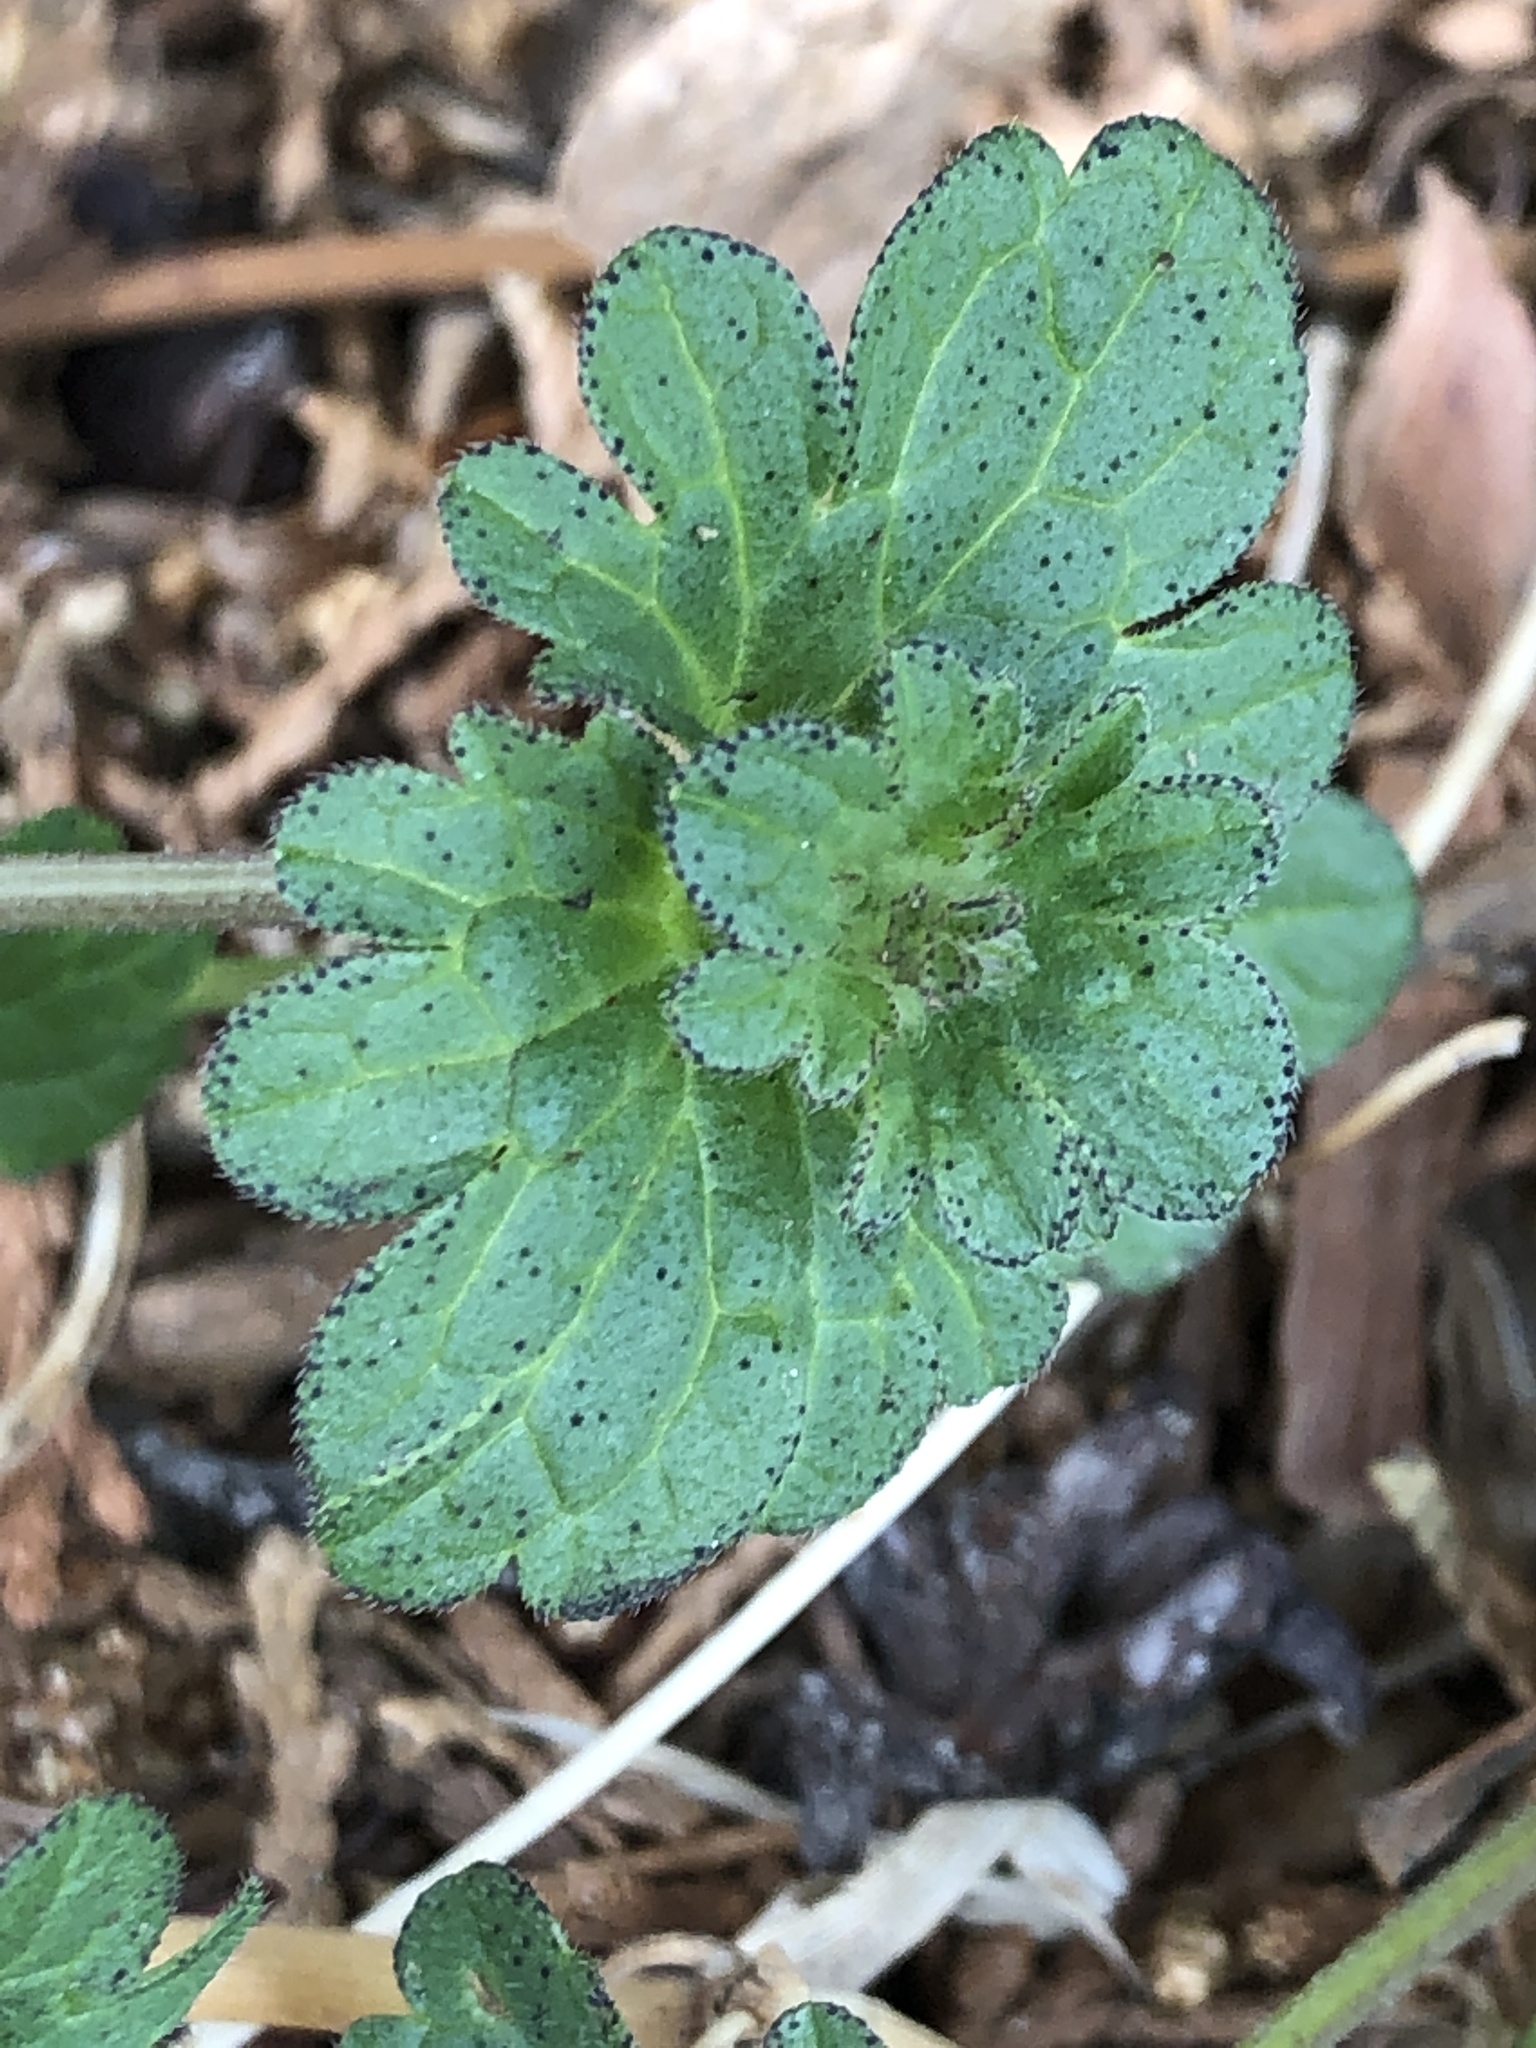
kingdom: Plantae
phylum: Tracheophyta
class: Magnoliopsida
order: Lamiales
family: Lamiaceae
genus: Lamium
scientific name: Lamium amplexicaule
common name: Henbit dead-nettle
